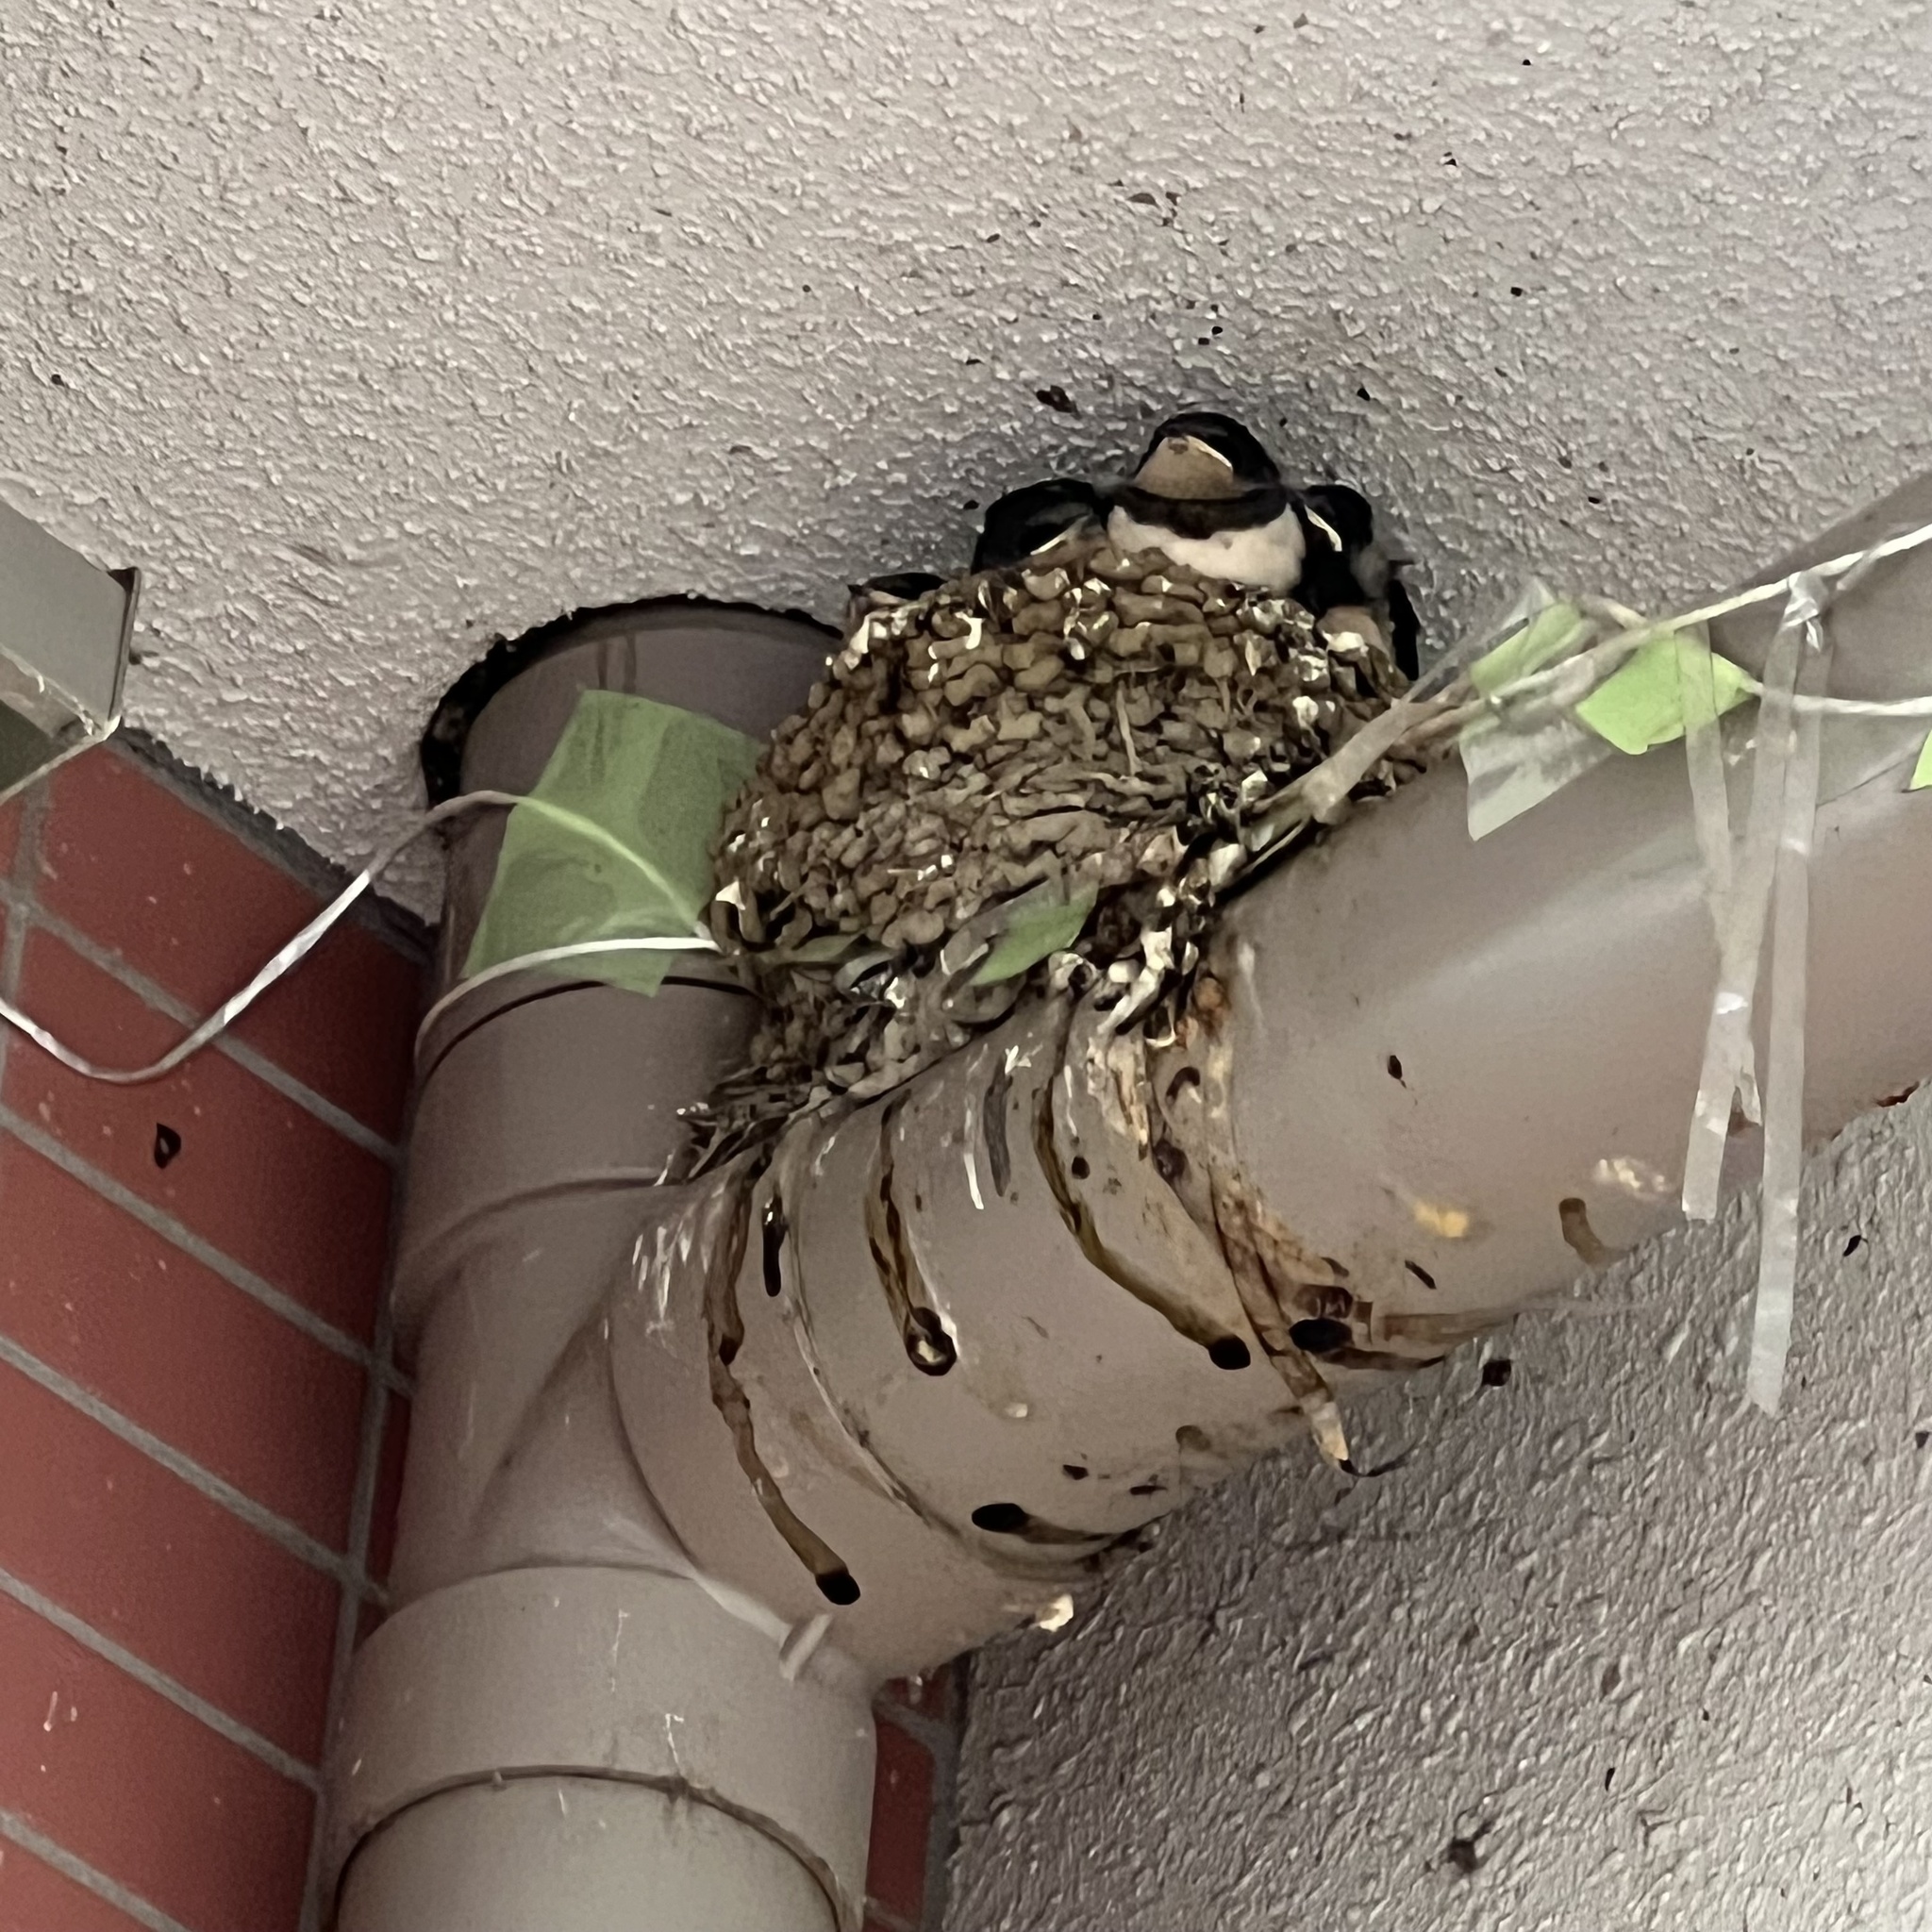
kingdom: Animalia
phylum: Chordata
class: Aves
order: Passeriformes
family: Hirundinidae
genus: Hirundo
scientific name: Hirundo rustica
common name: Barn swallow
